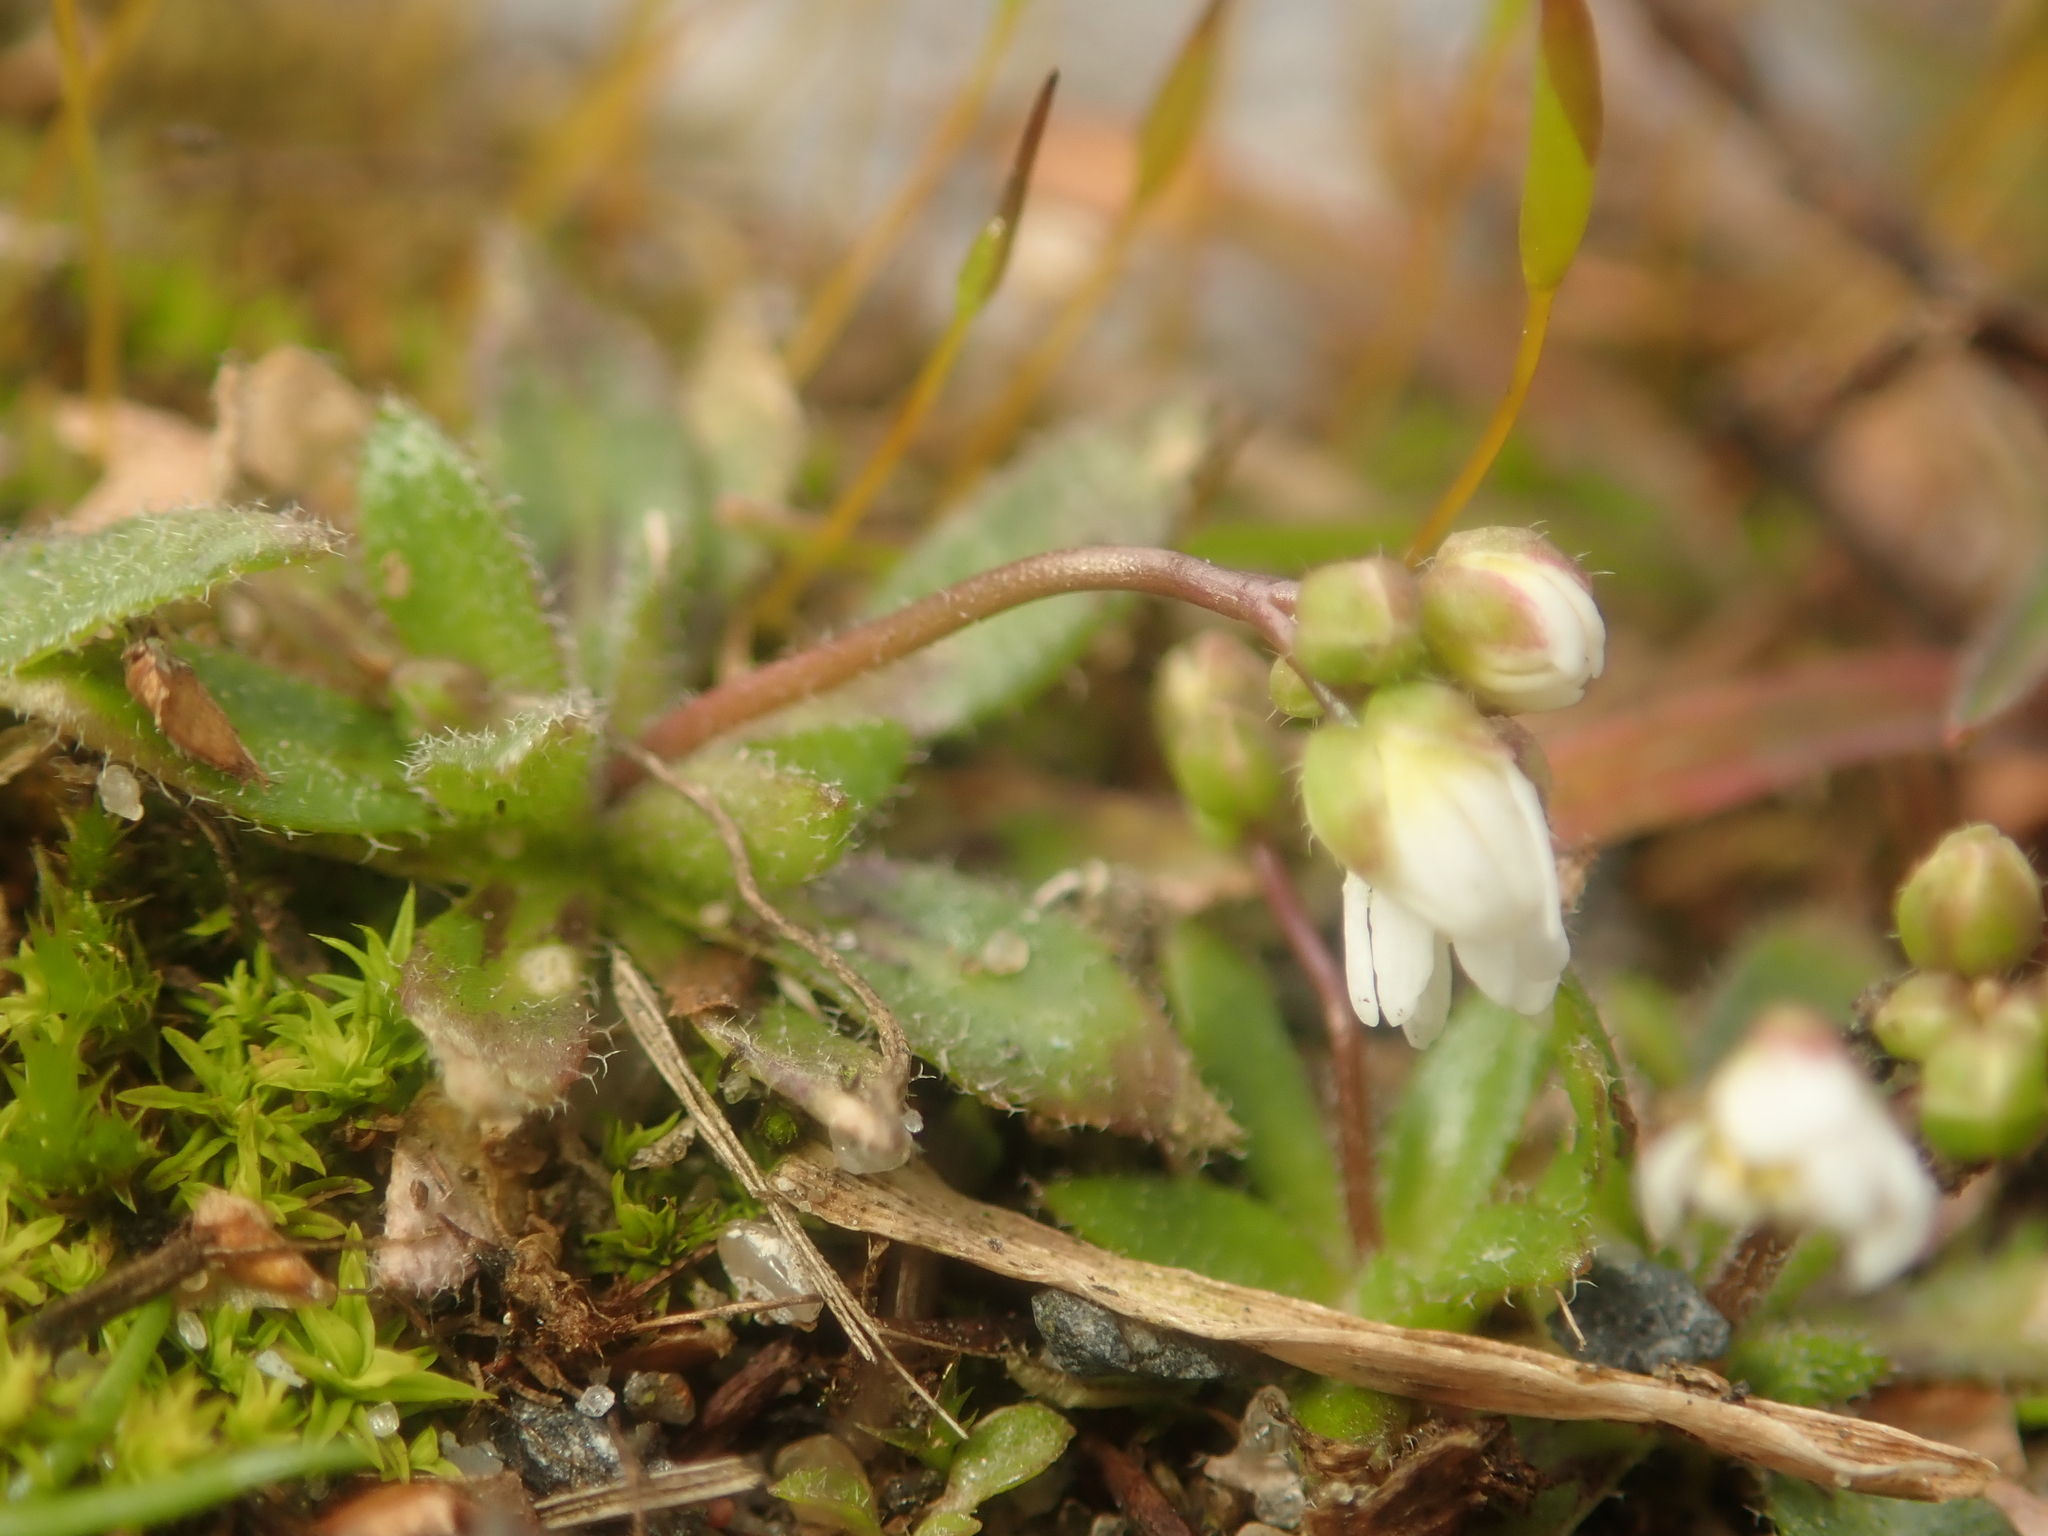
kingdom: Plantae
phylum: Tracheophyta
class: Magnoliopsida
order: Brassicales
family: Brassicaceae
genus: Draba
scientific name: Draba verna
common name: Spring draba
